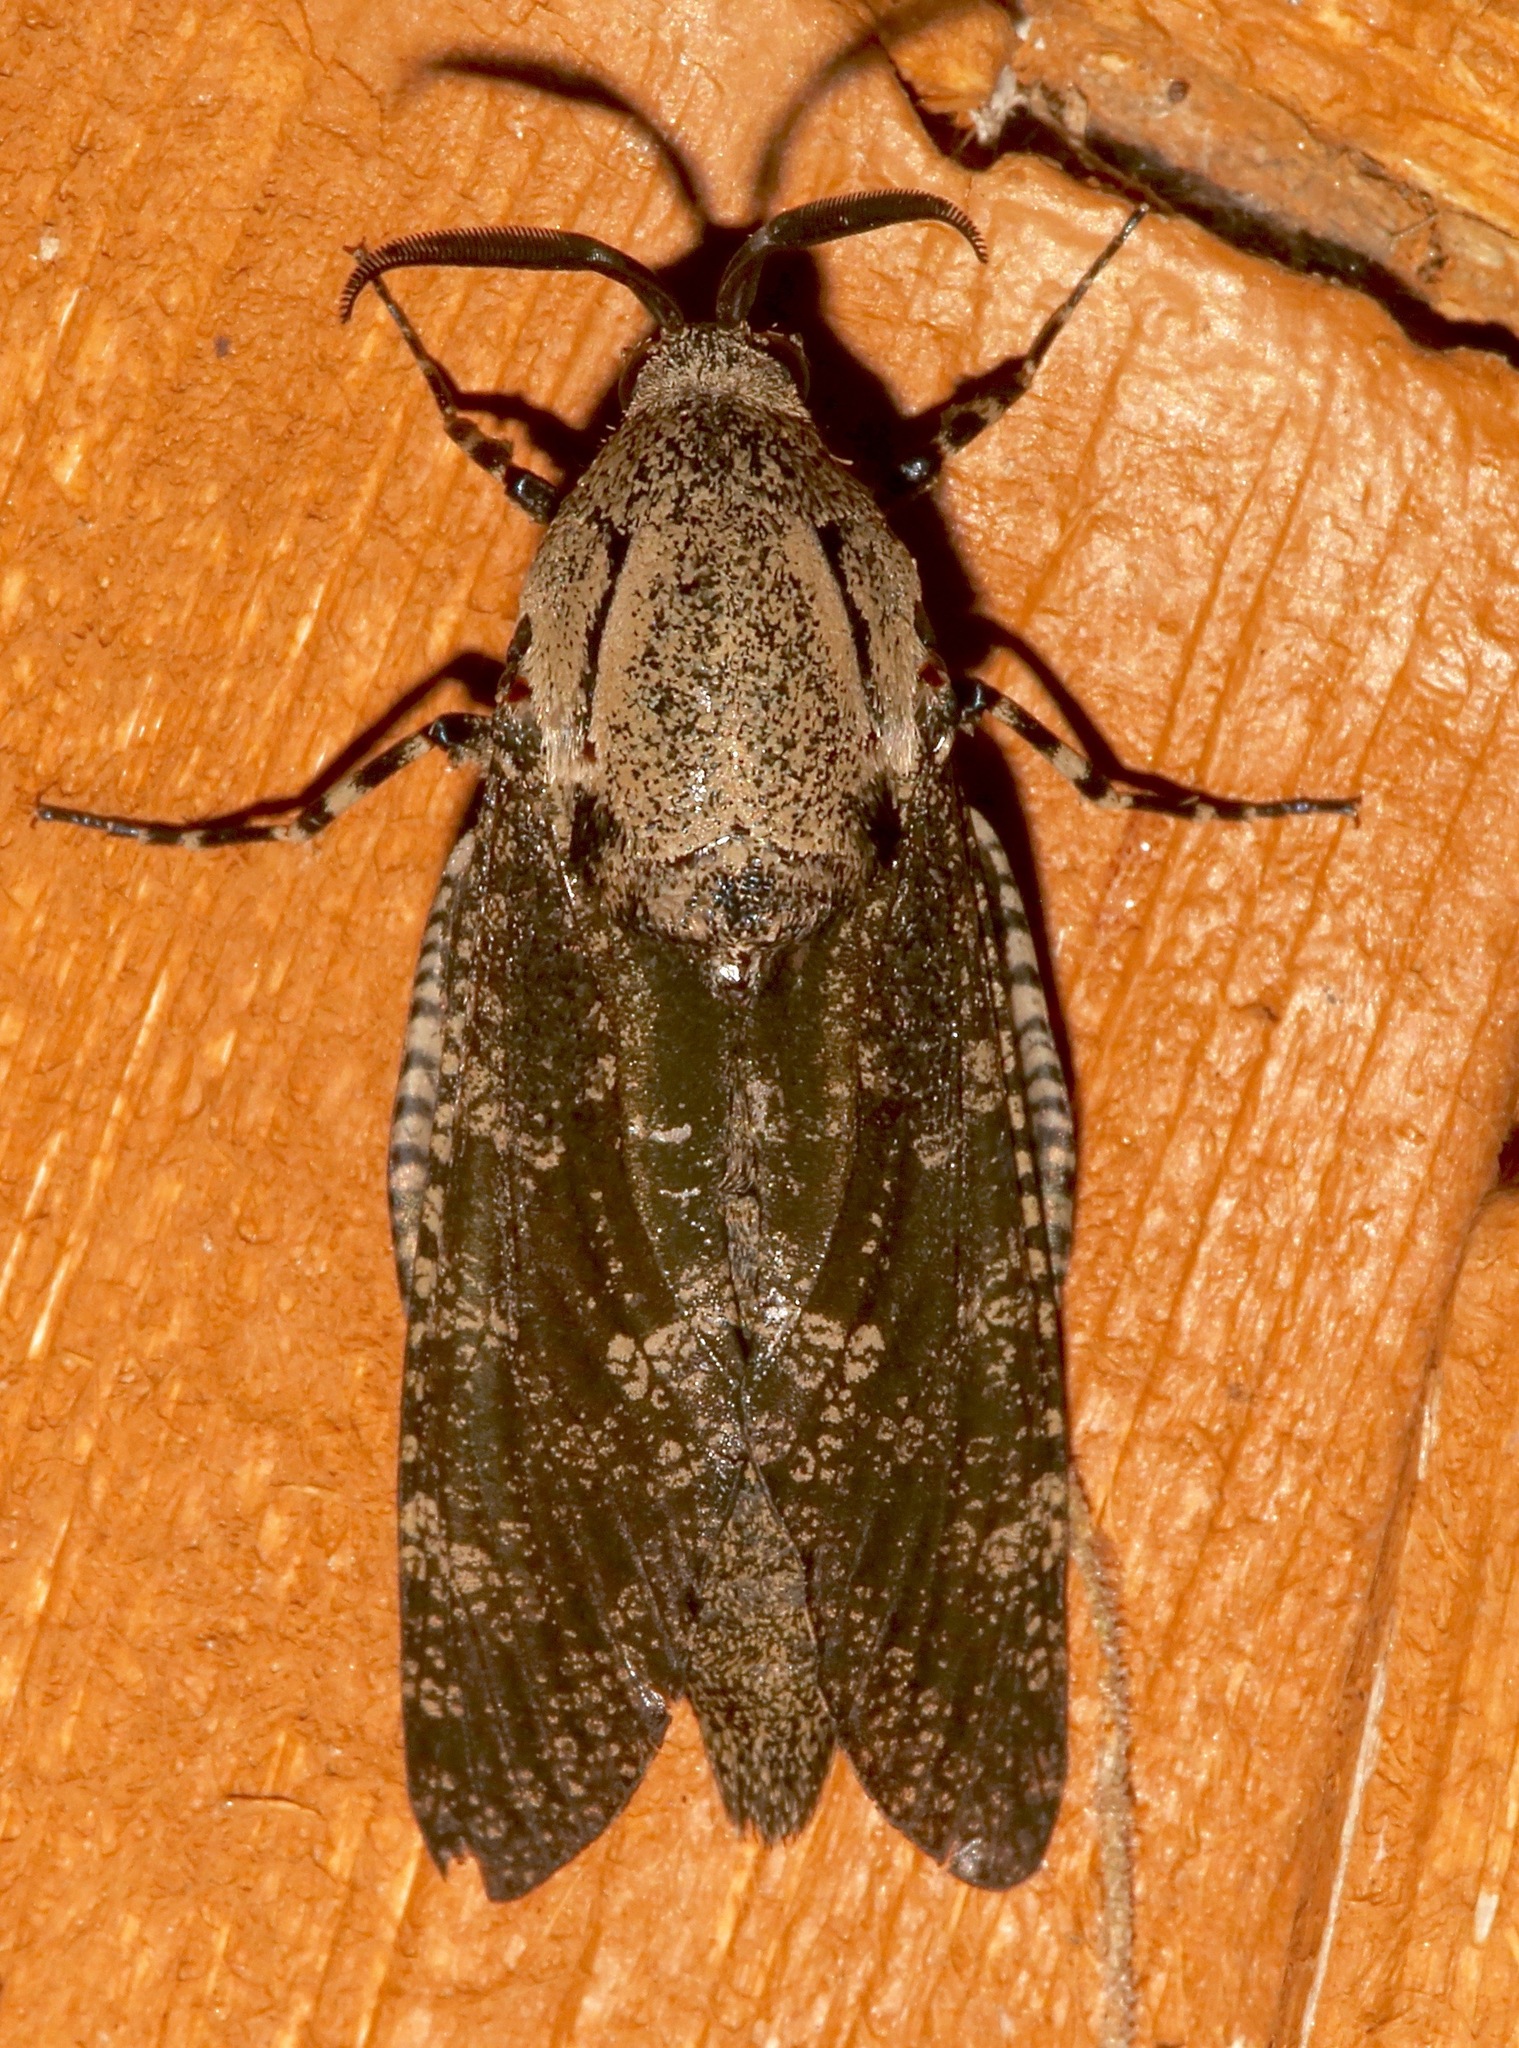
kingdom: Animalia
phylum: Arthropoda
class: Insecta
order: Lepidoptera
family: Cossidae
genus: Prionoxystus
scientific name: Prionoxystus robiniae
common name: Carpenterworm
